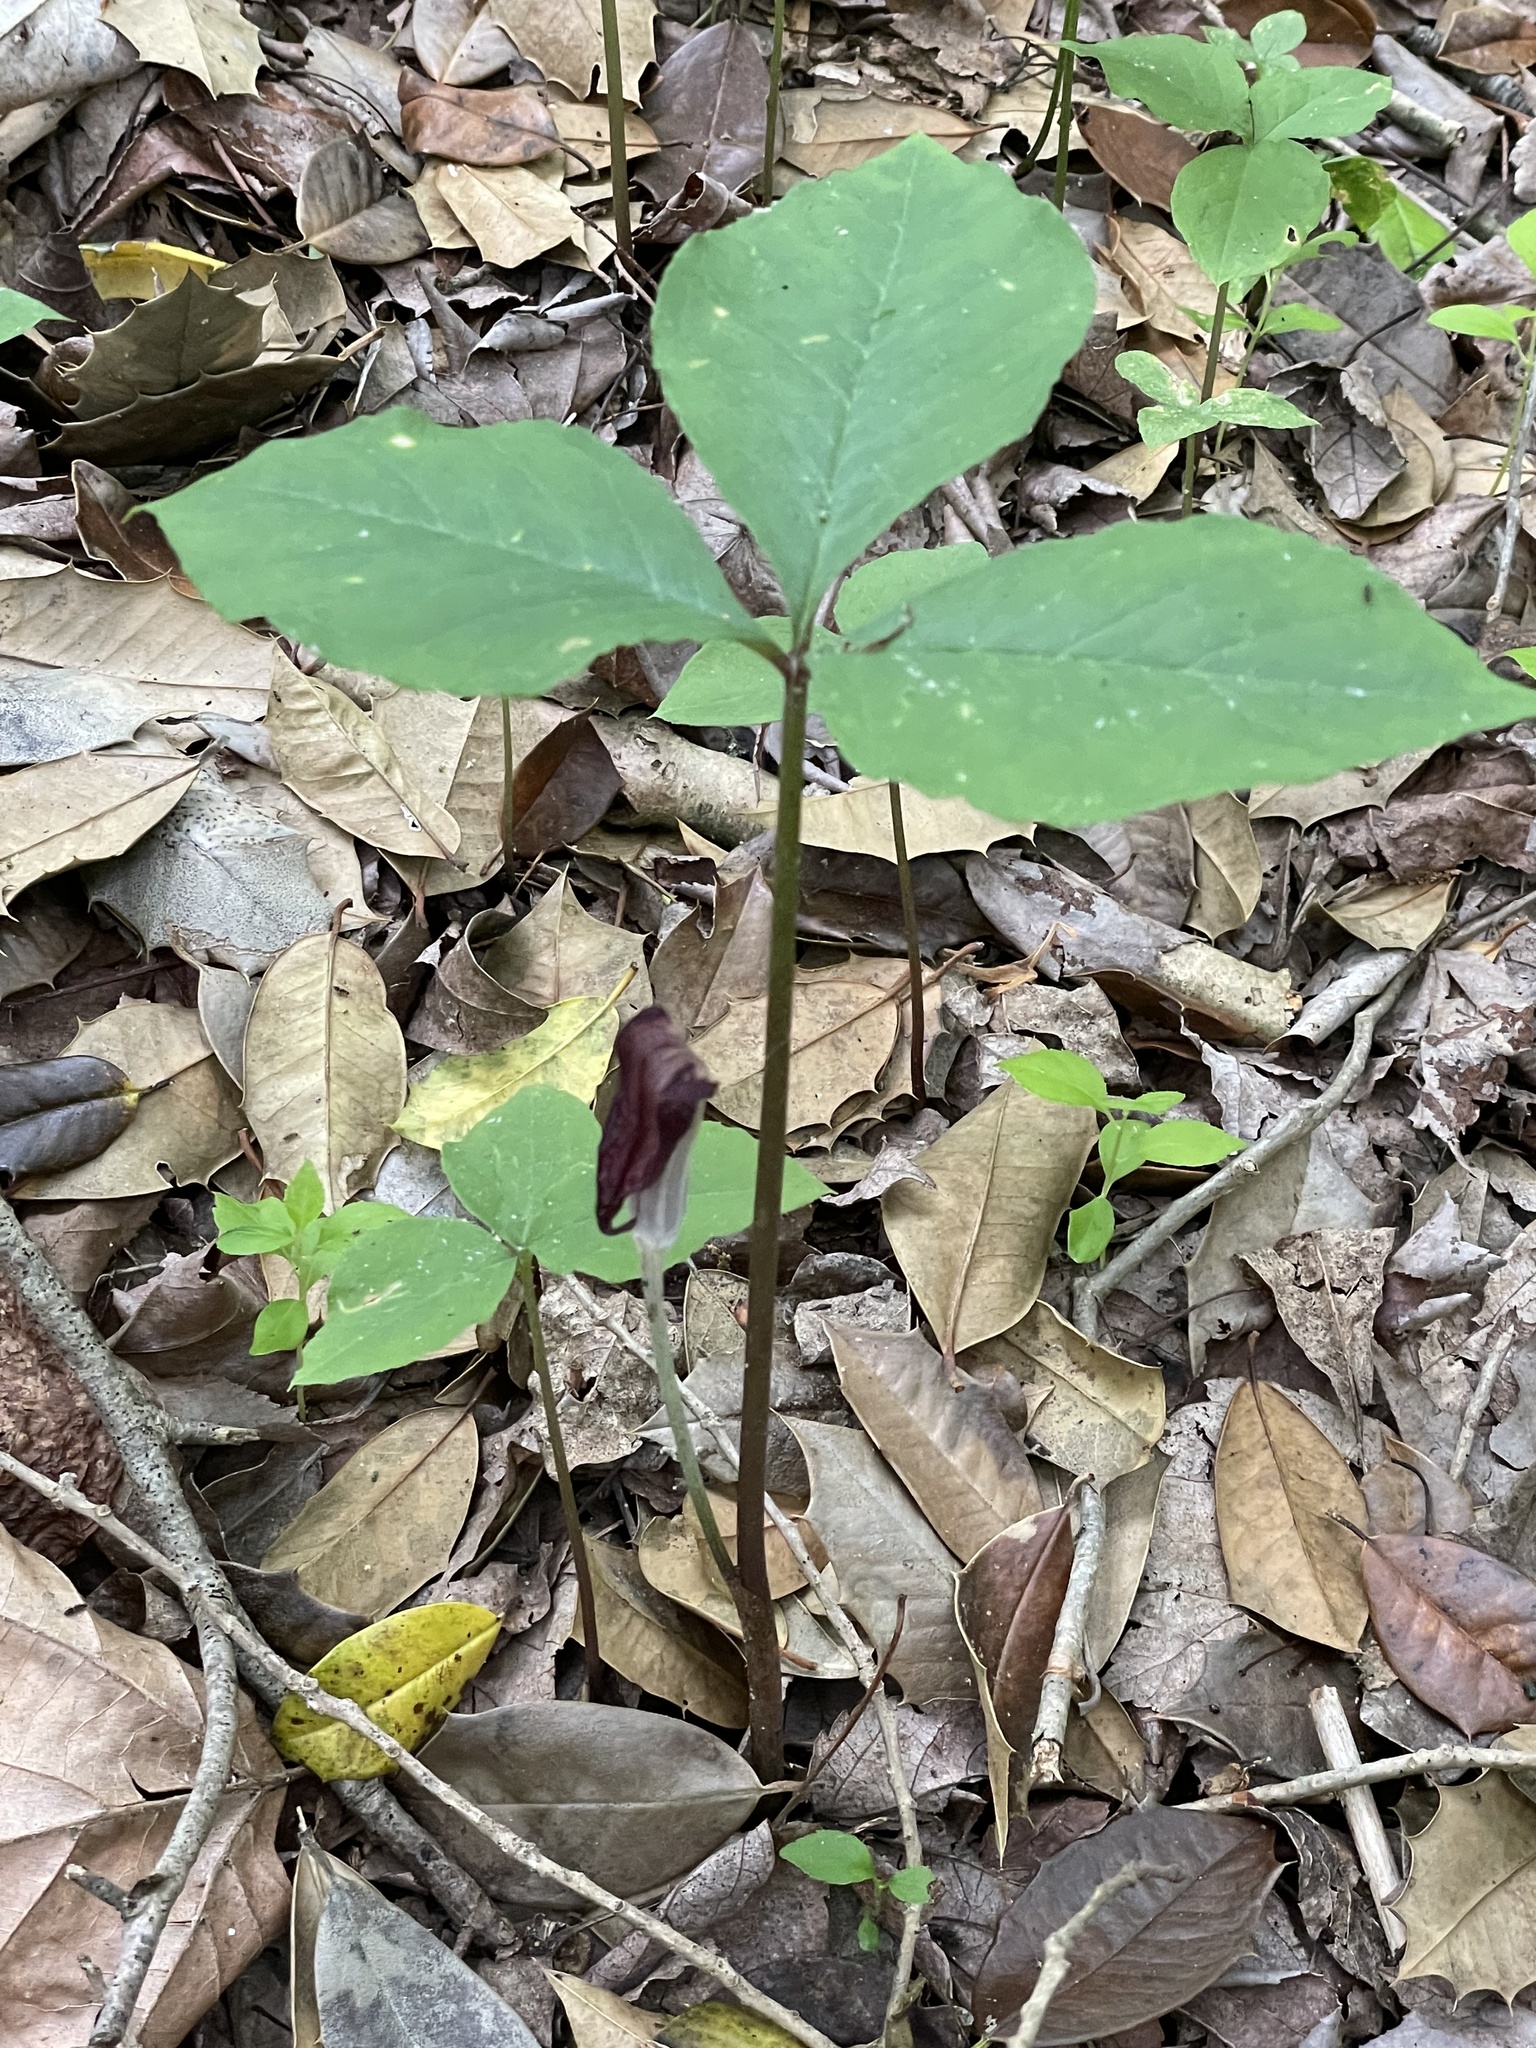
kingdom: Plantae
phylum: Tracheophyta
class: Liliopsida
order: Alismatales
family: Araceae
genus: Arisaema
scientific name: Arisaema triphyllum
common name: Jack-in-the-pulpit
